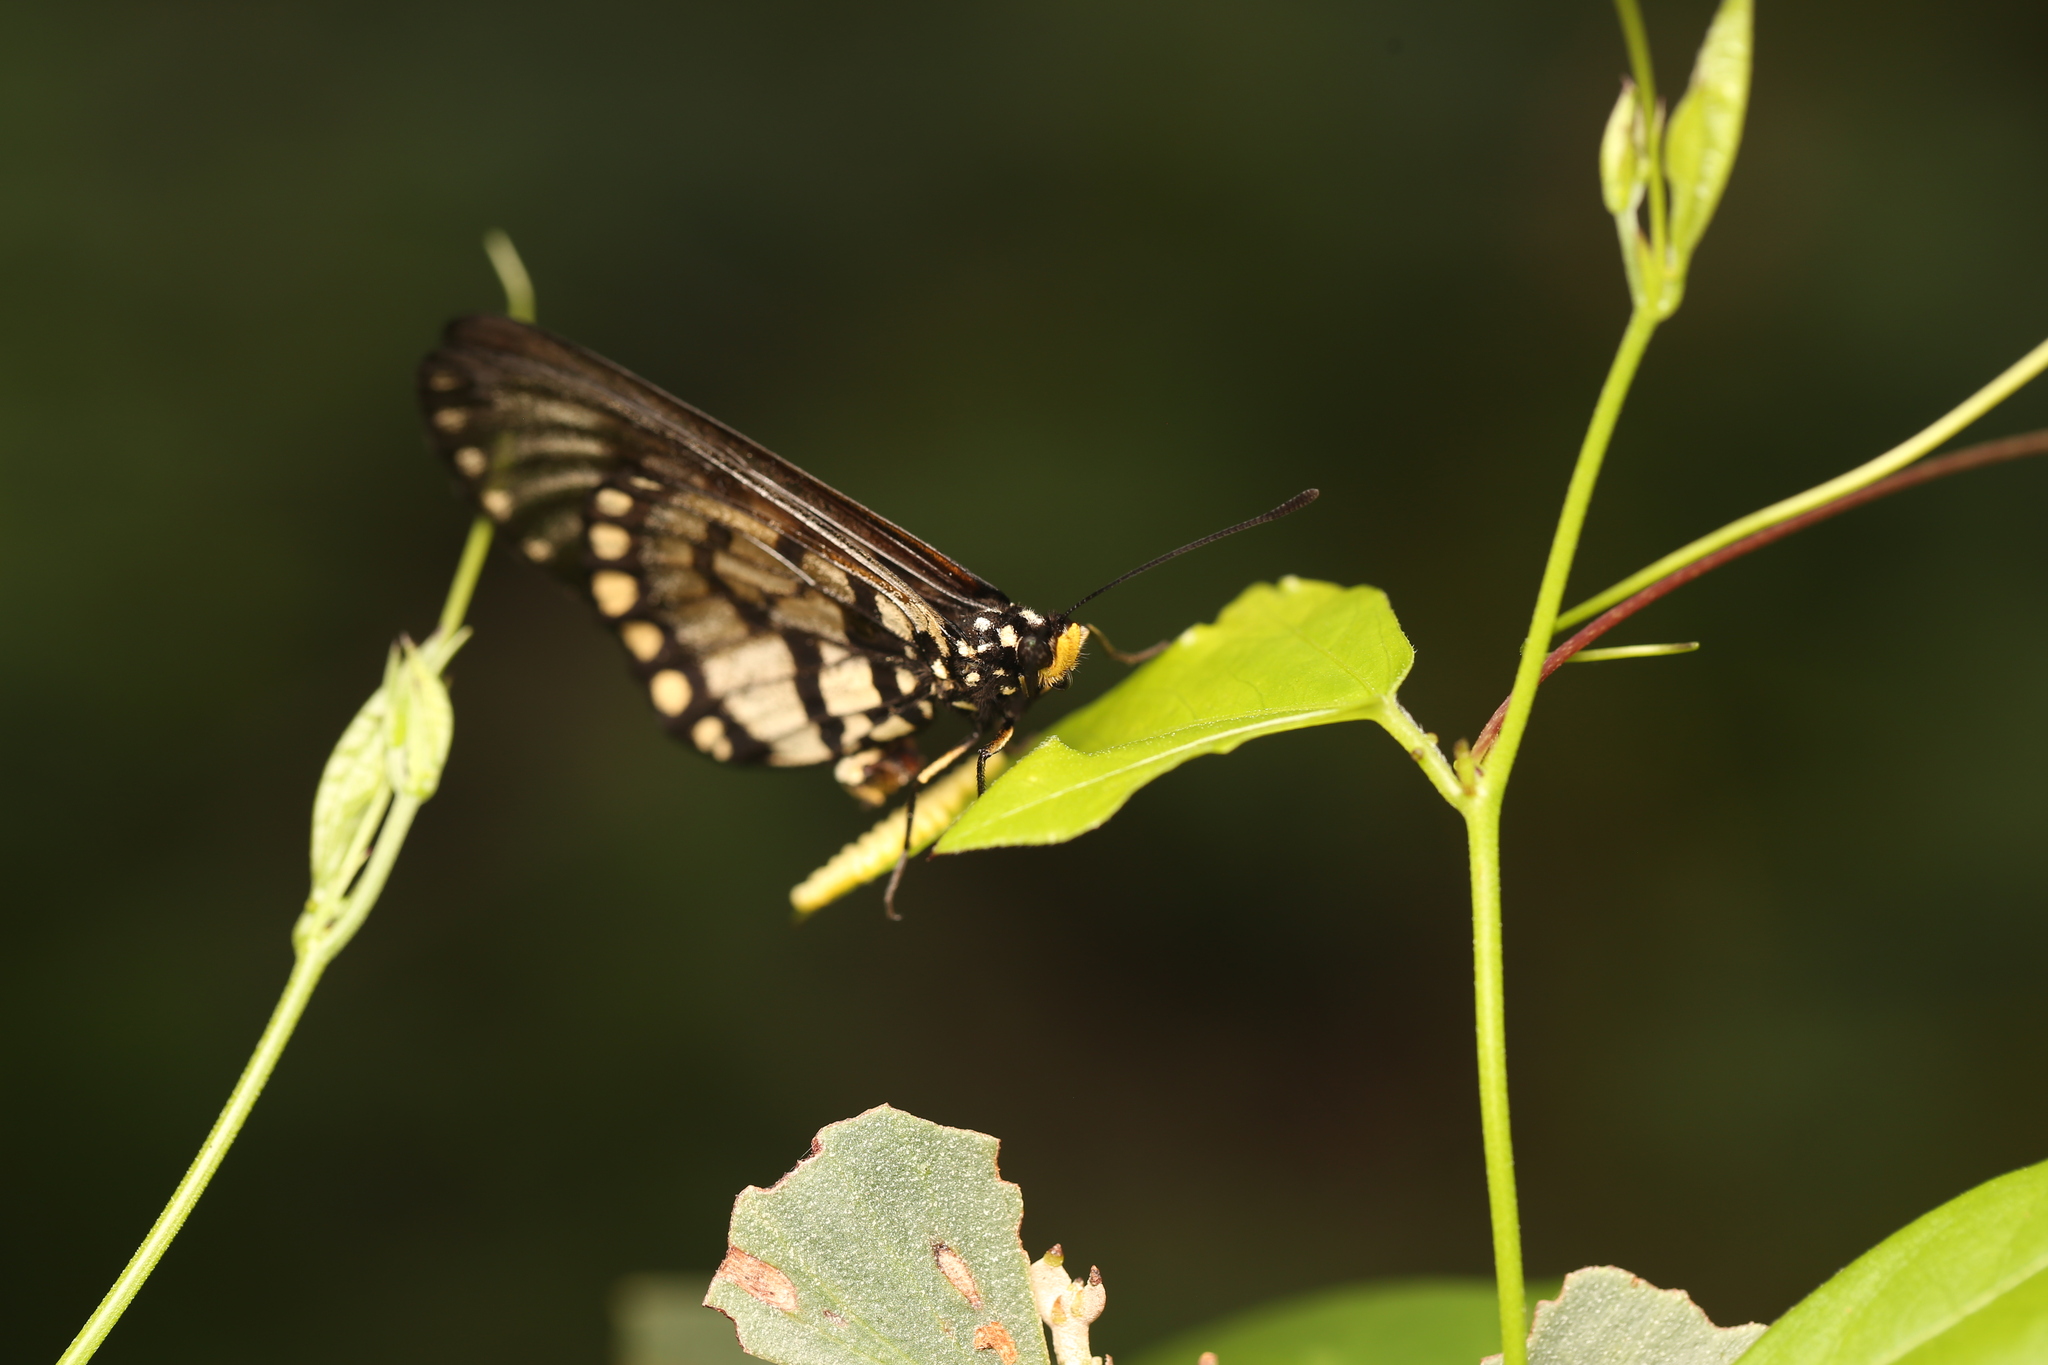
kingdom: Animalia
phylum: Arthropoda
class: Insecta
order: Lepidoptera
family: Nymphalidae
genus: Acraea
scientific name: Acraea andromacha
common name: Glasswing
